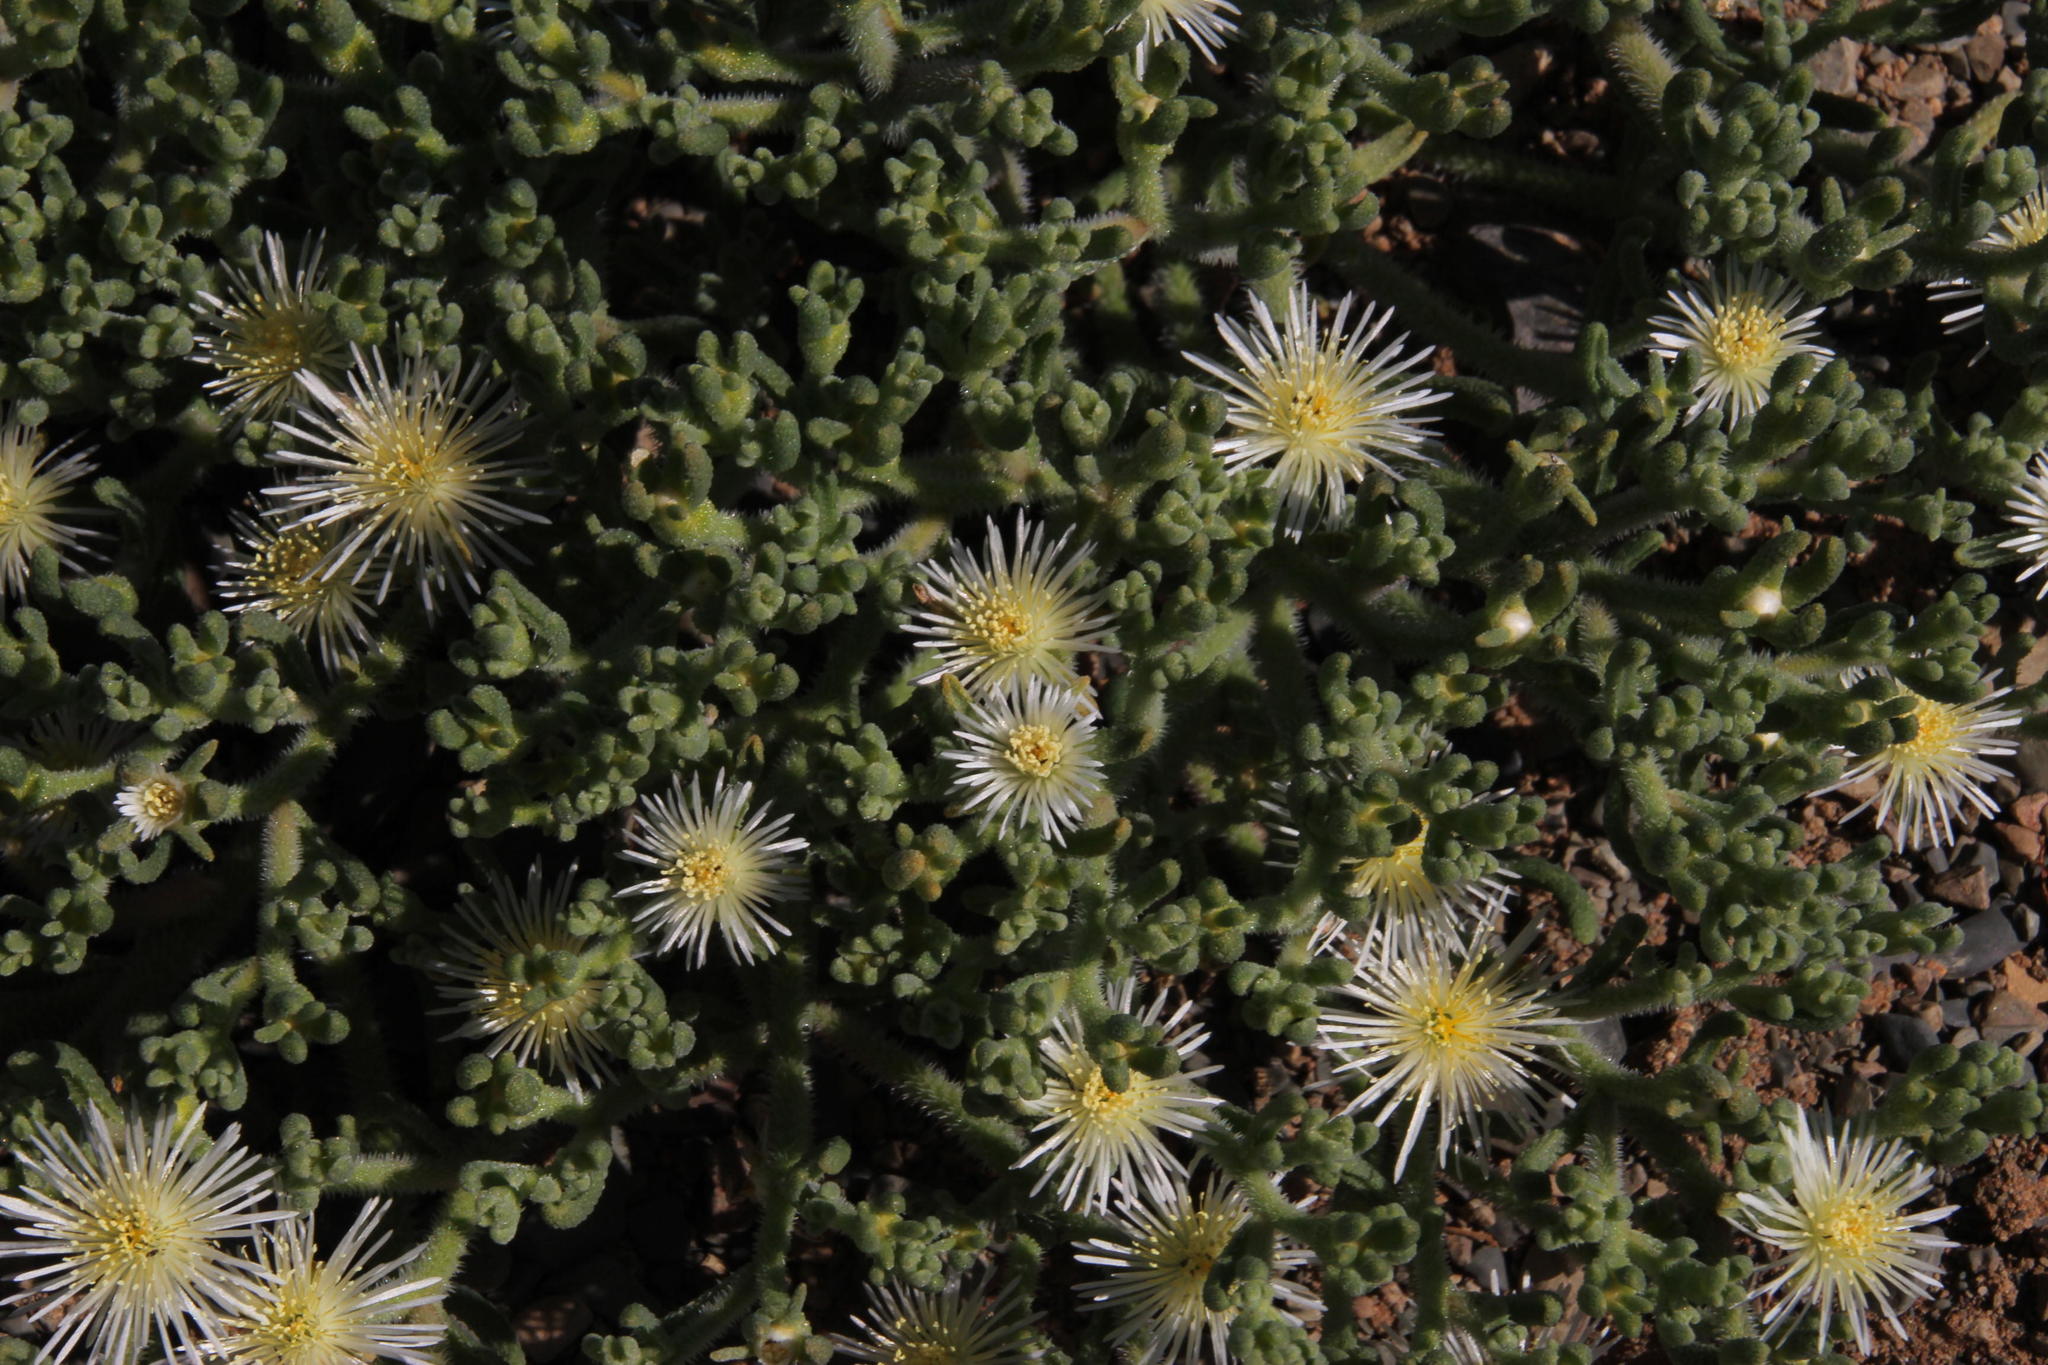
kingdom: Plantae
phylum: Tracheophyta
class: Magnoliopsida
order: Caryophyllales
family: Aizoaceae
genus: Mesembryanthemum
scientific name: Mesembryanthemum inachabense
